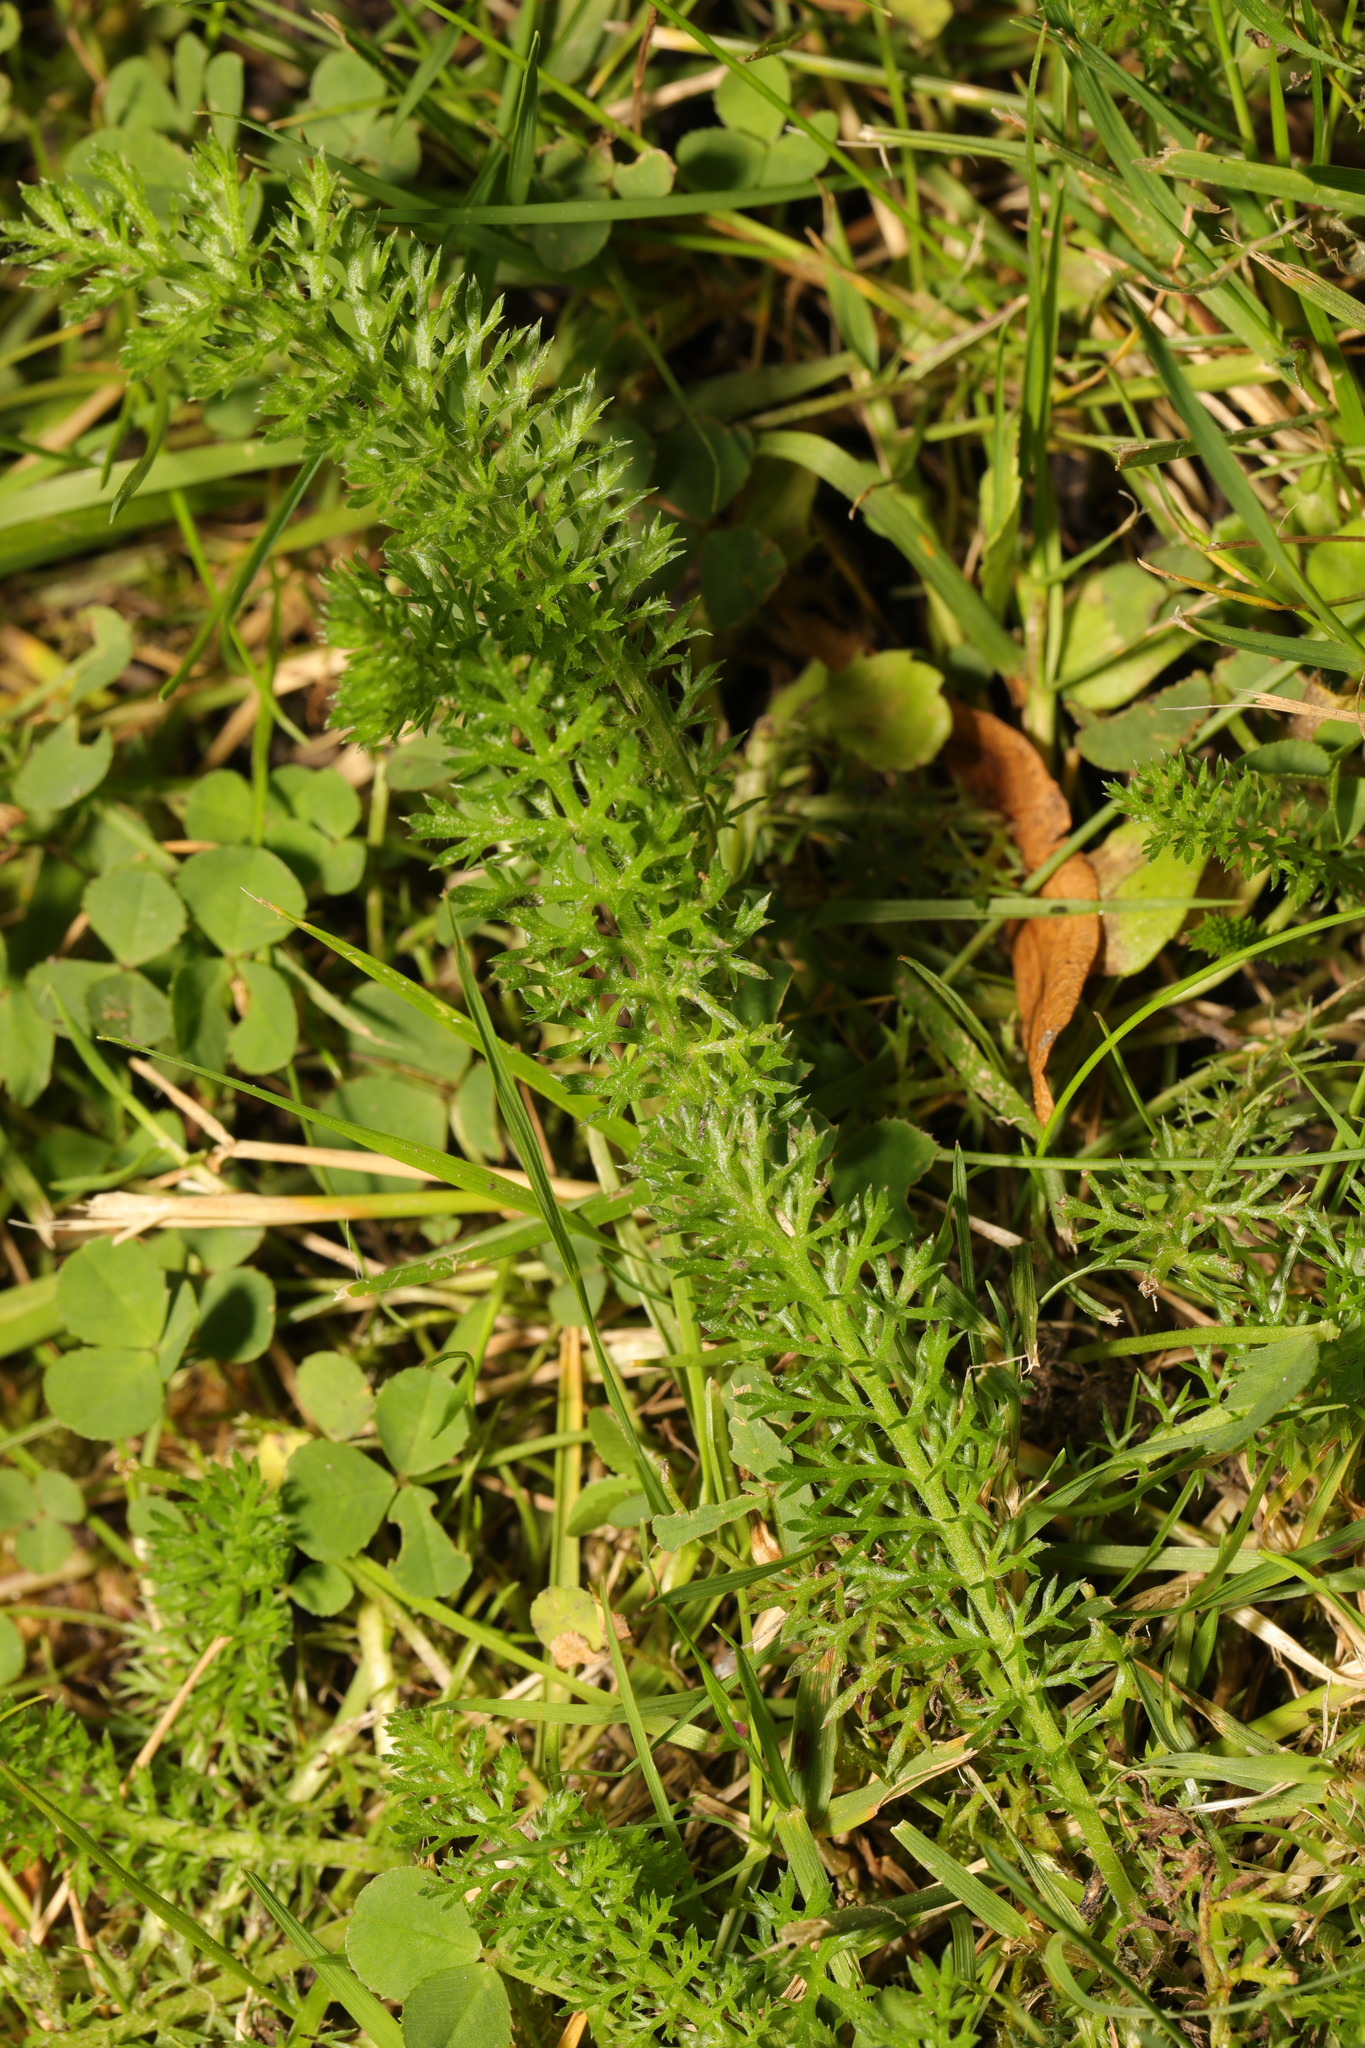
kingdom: Plantae
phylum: Tracheophyta
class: Magnoliopsida
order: Asterales
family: Asteraceae
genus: Achillea
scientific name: Achillea millefolium
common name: Yarrow
